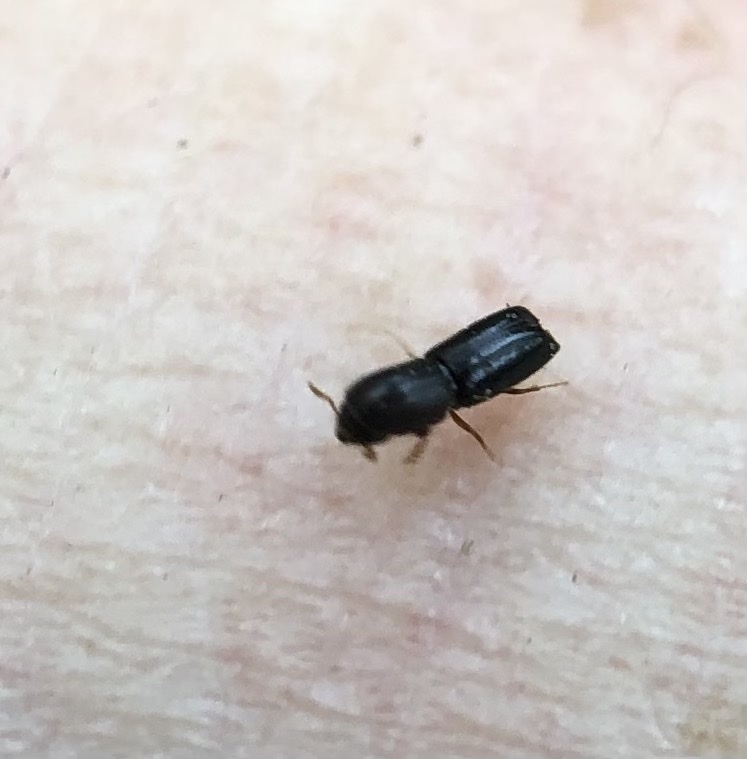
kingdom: Animalia
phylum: Arthropoda
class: Insecta
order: Coleoptera
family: Curculionidae
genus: Monarthrum
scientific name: Monarthrum mali
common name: Bark beetle
